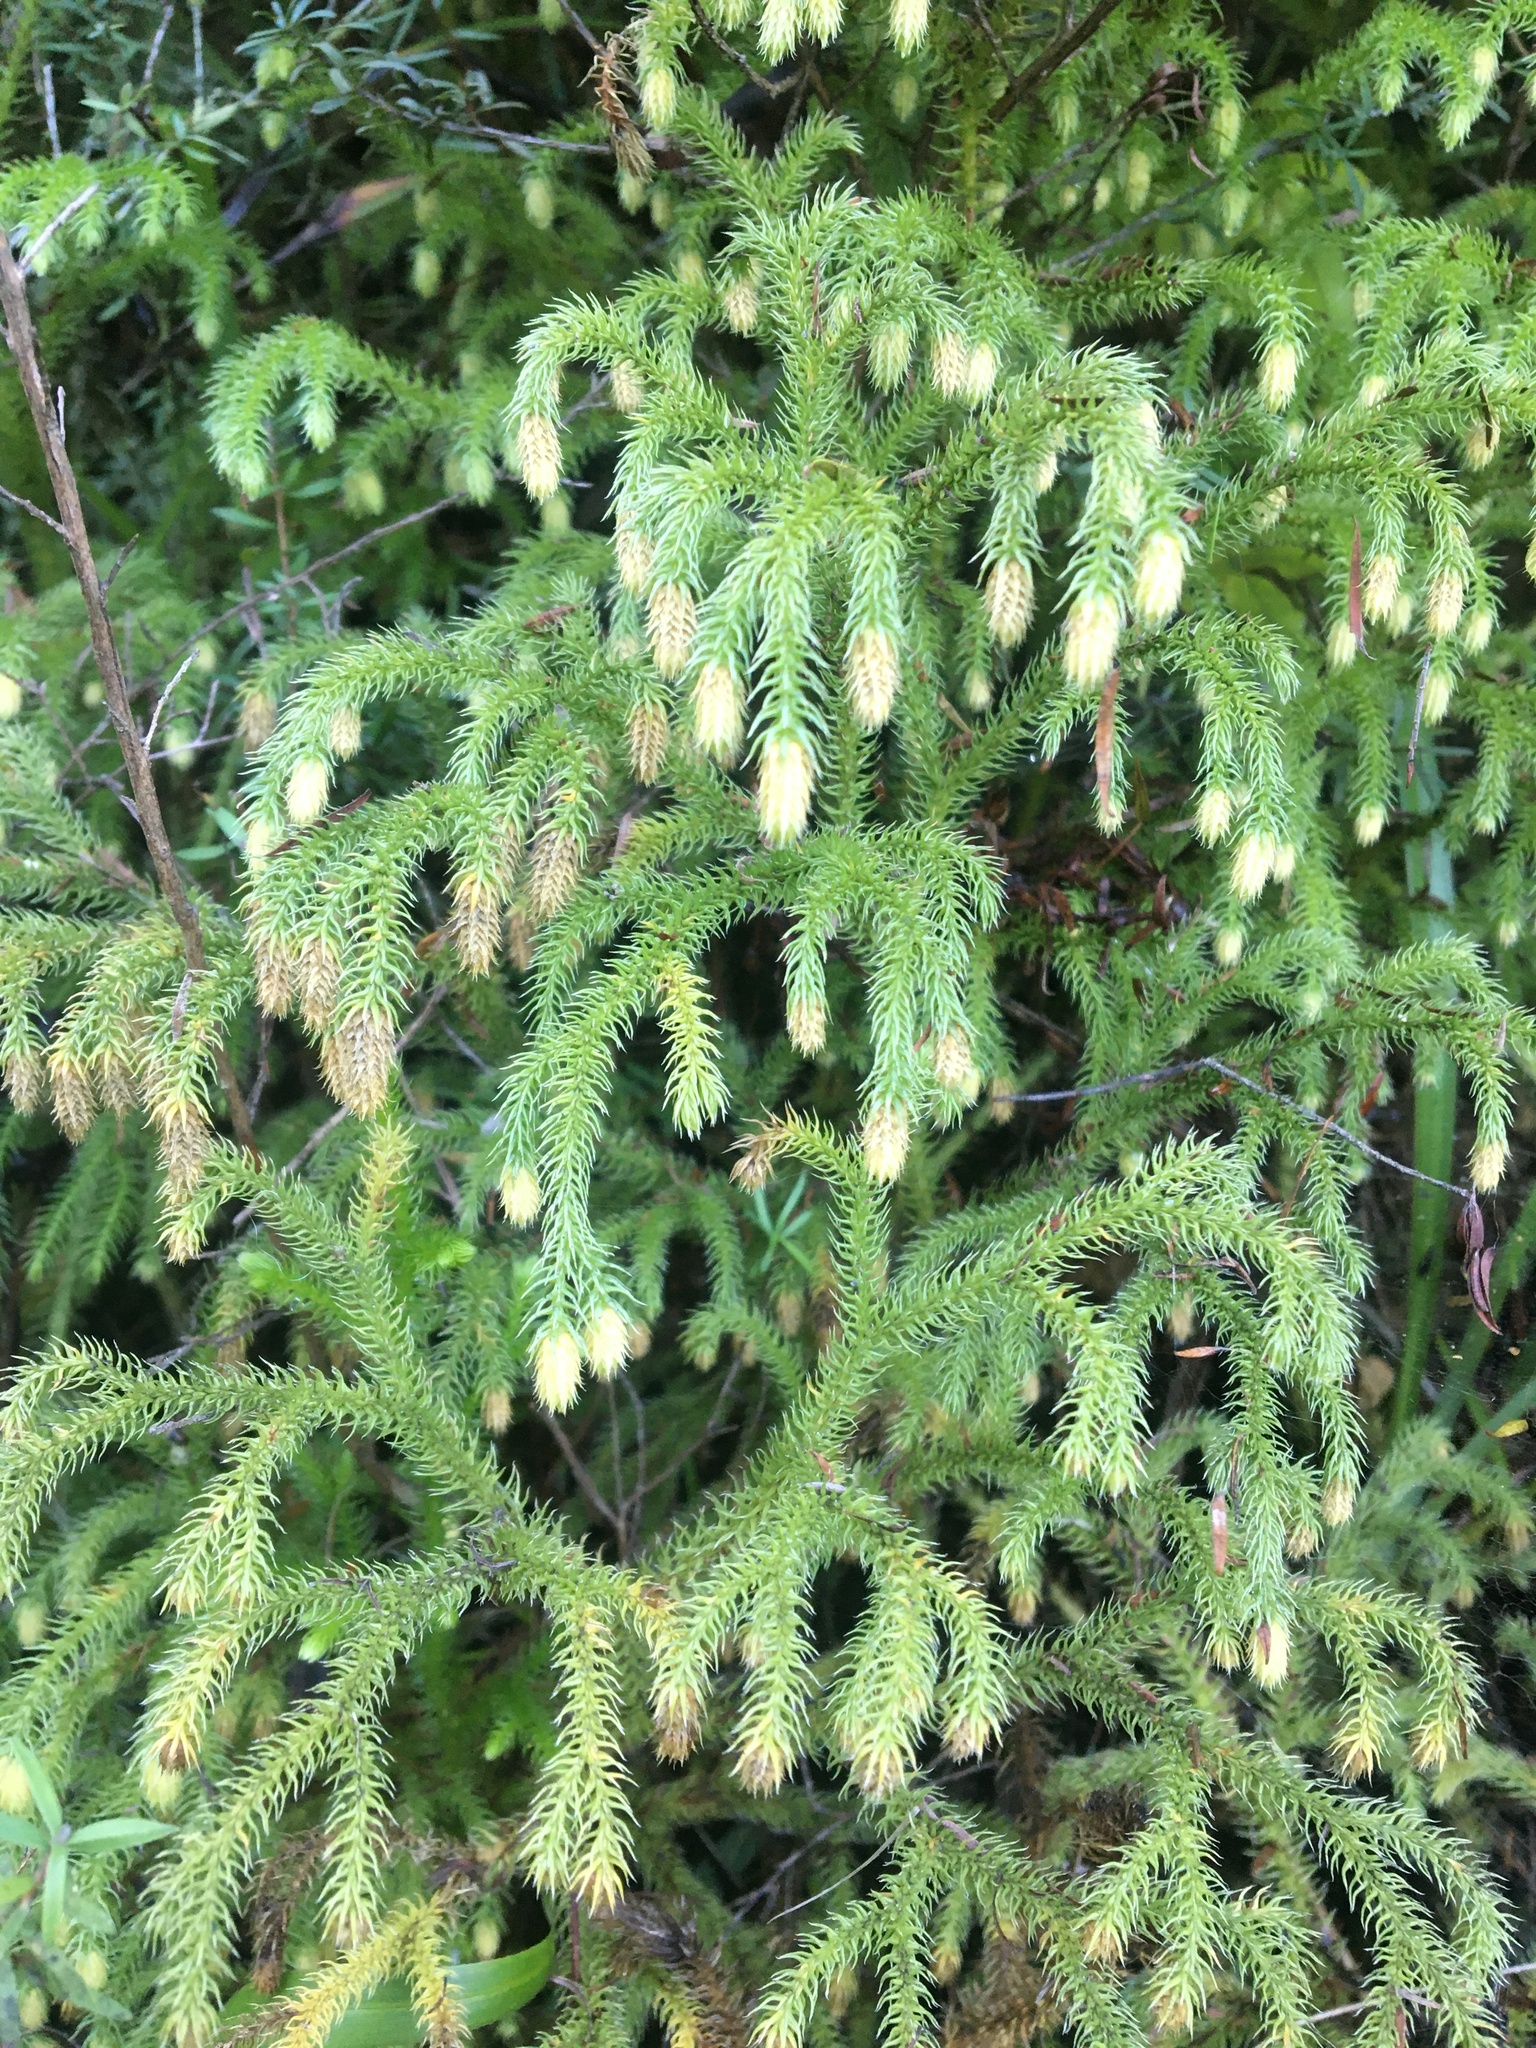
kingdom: Plantae
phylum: Tracheophyta
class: Lycopodiopsida
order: Lycopodiales
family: Lycopodiaceae
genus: Palhinhaea
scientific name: Palhinhaea cernua
